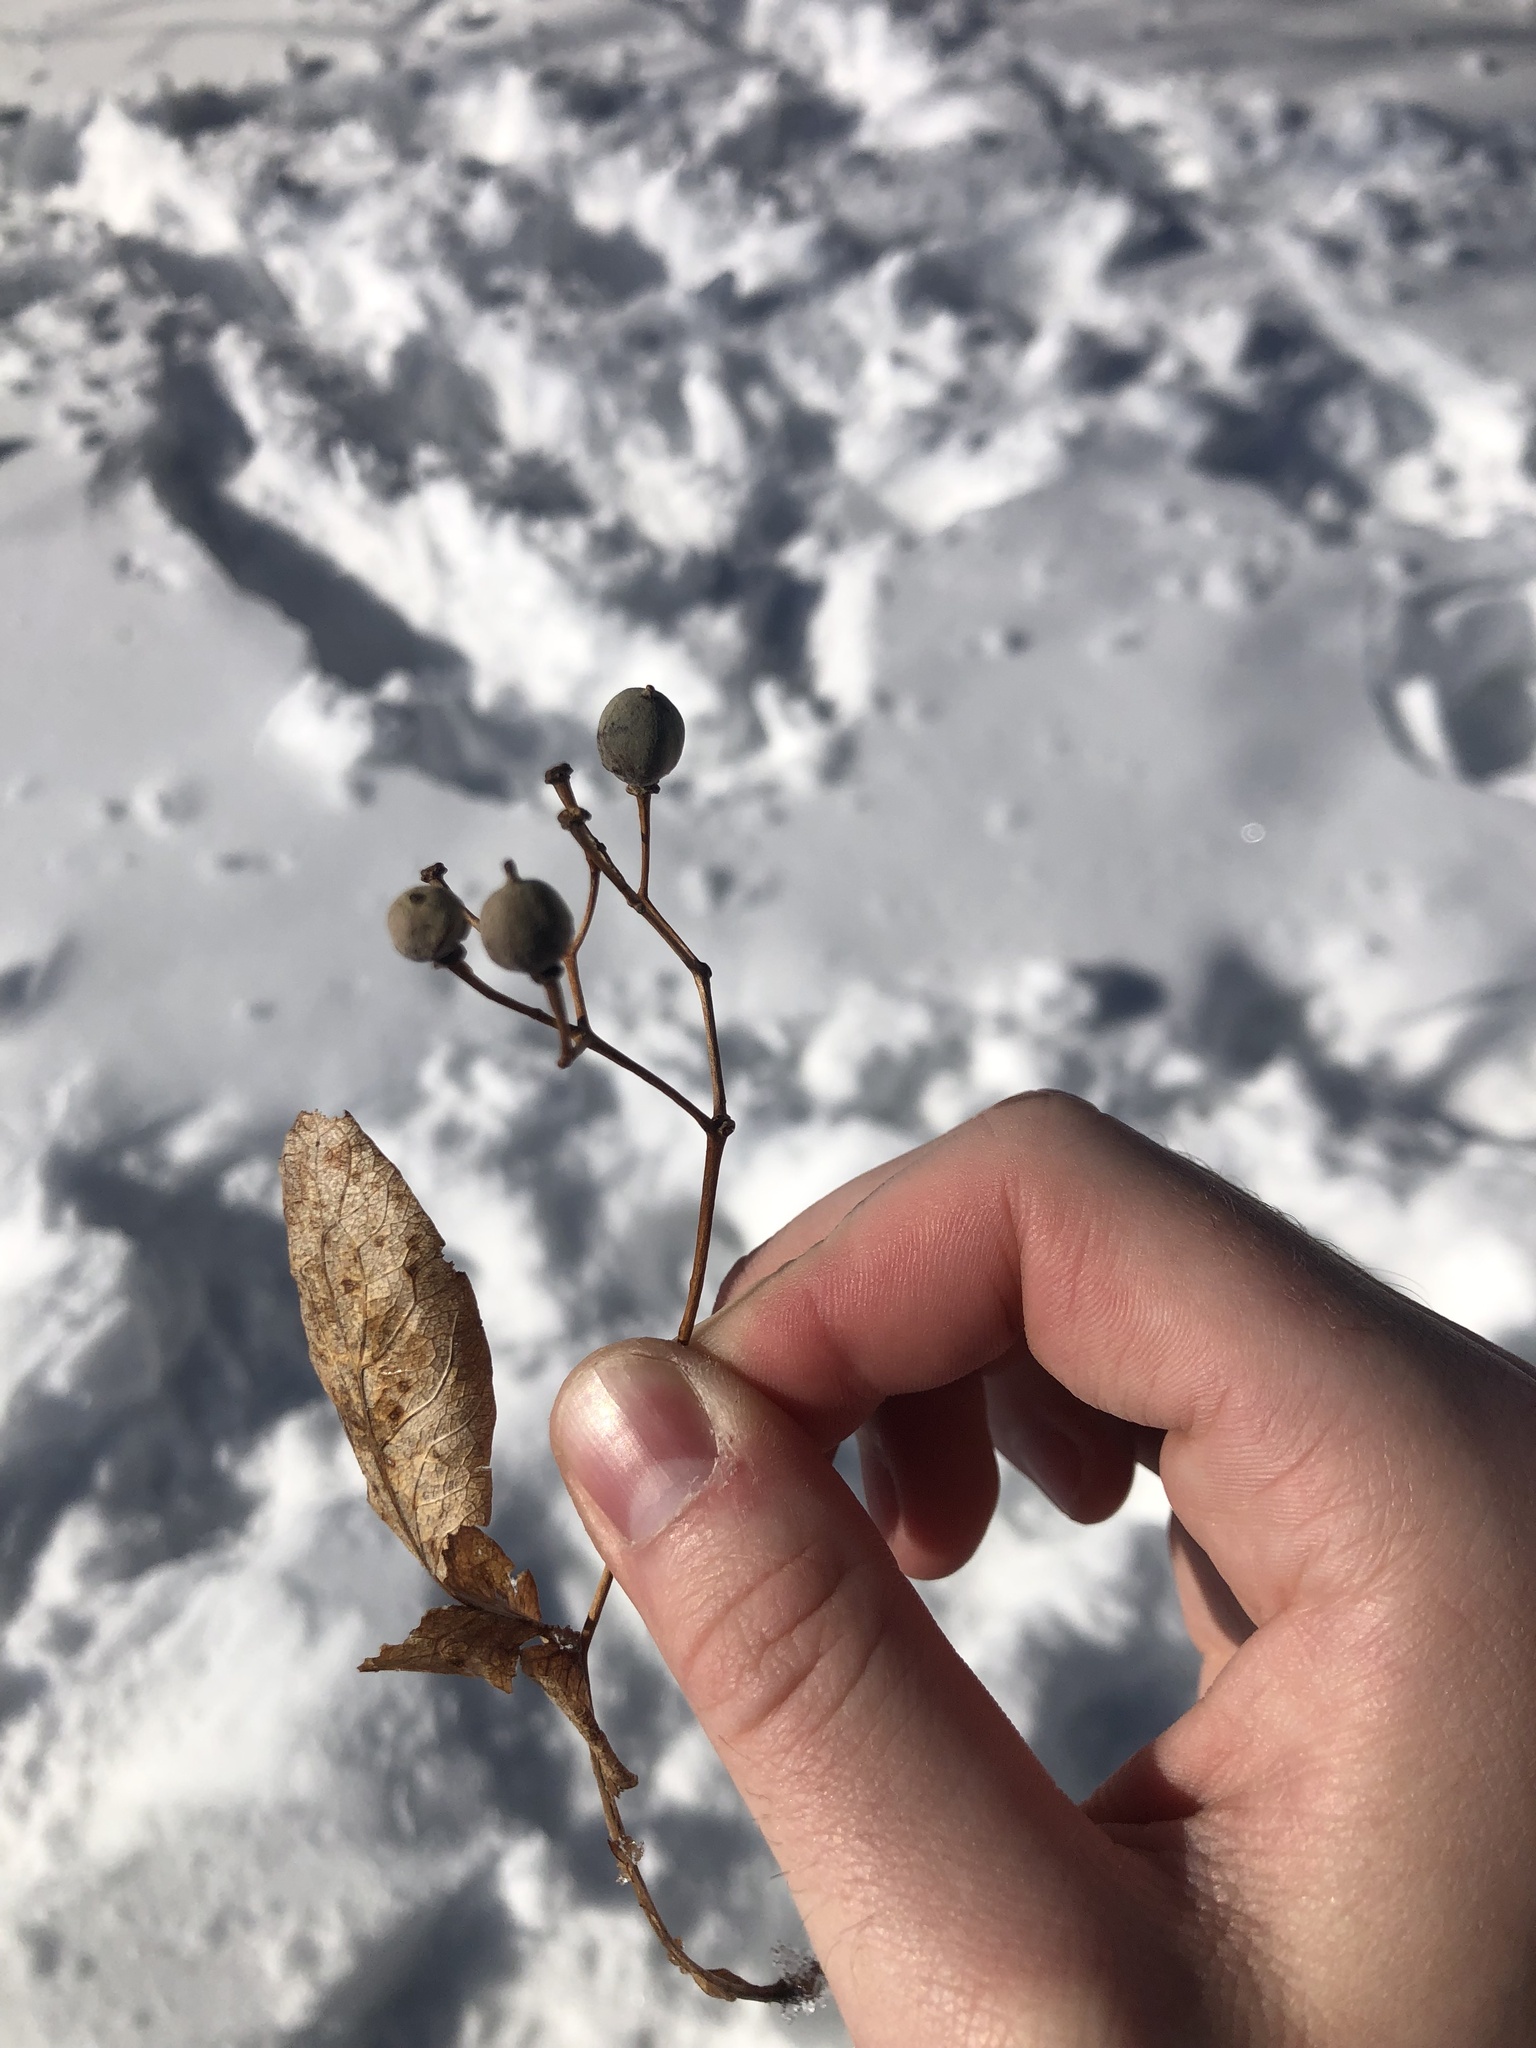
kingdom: Plantae
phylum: Tracheophyta
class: Magnoliopsida
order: Malvales
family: Malvaceae
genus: Tilia
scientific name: Tilia americana
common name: Basswood
